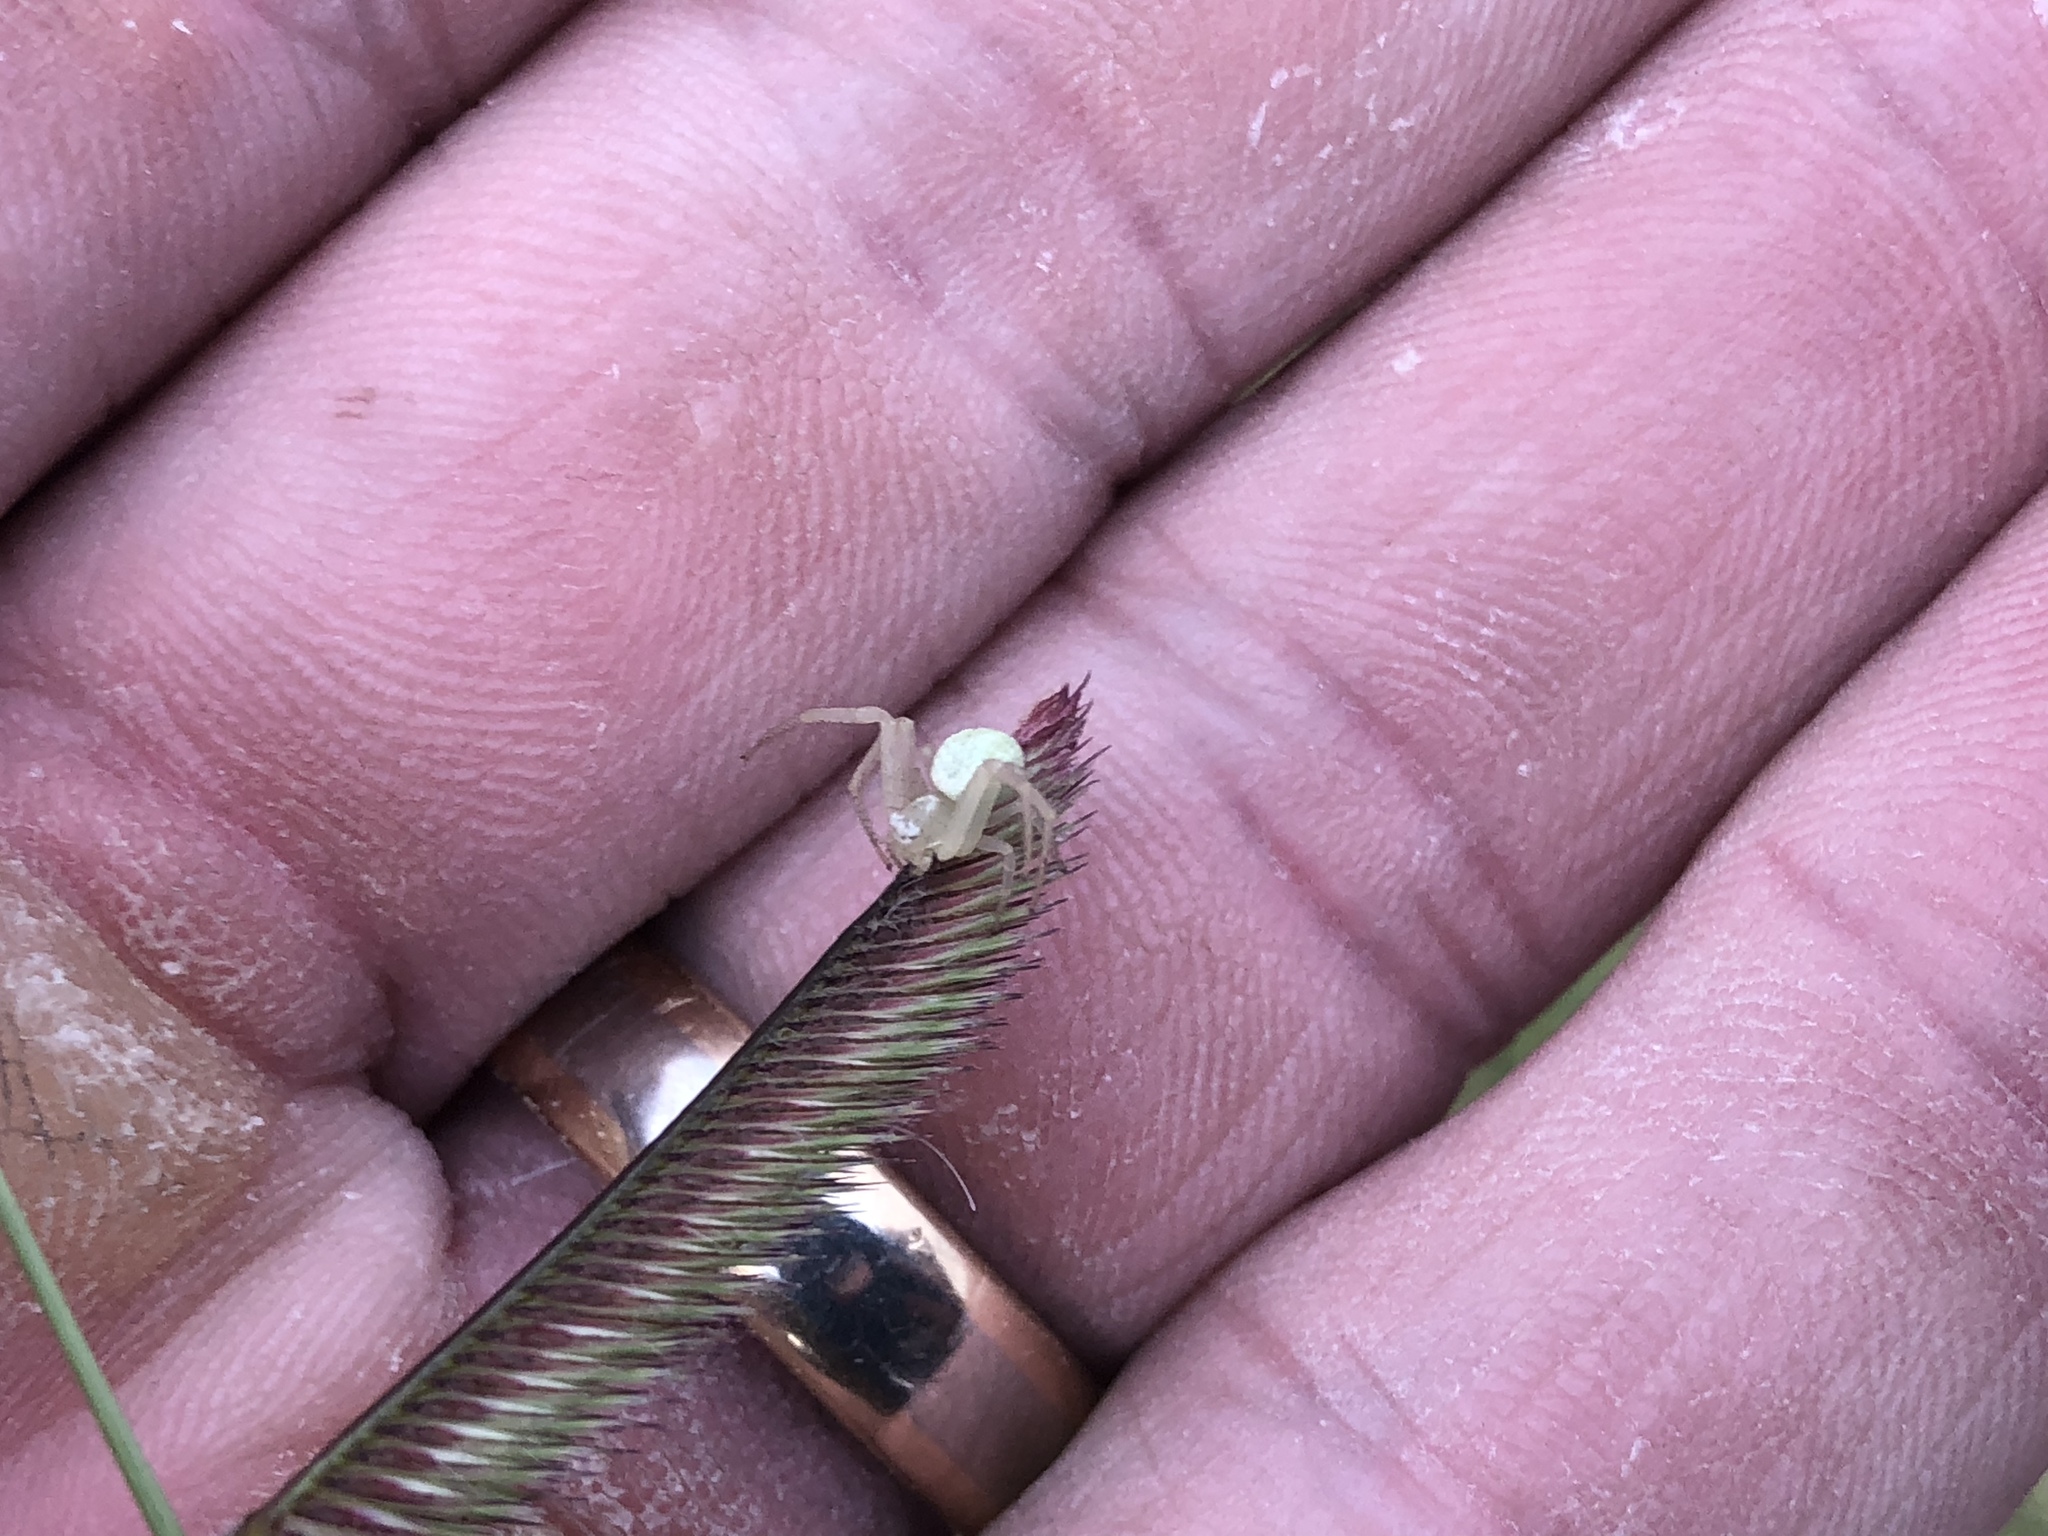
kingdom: Animalia
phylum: Arthropoda
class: Arachnida
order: Araneae
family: Thomisidae
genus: Misumena
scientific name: Misumena vatia
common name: Goldenrod crab spider
